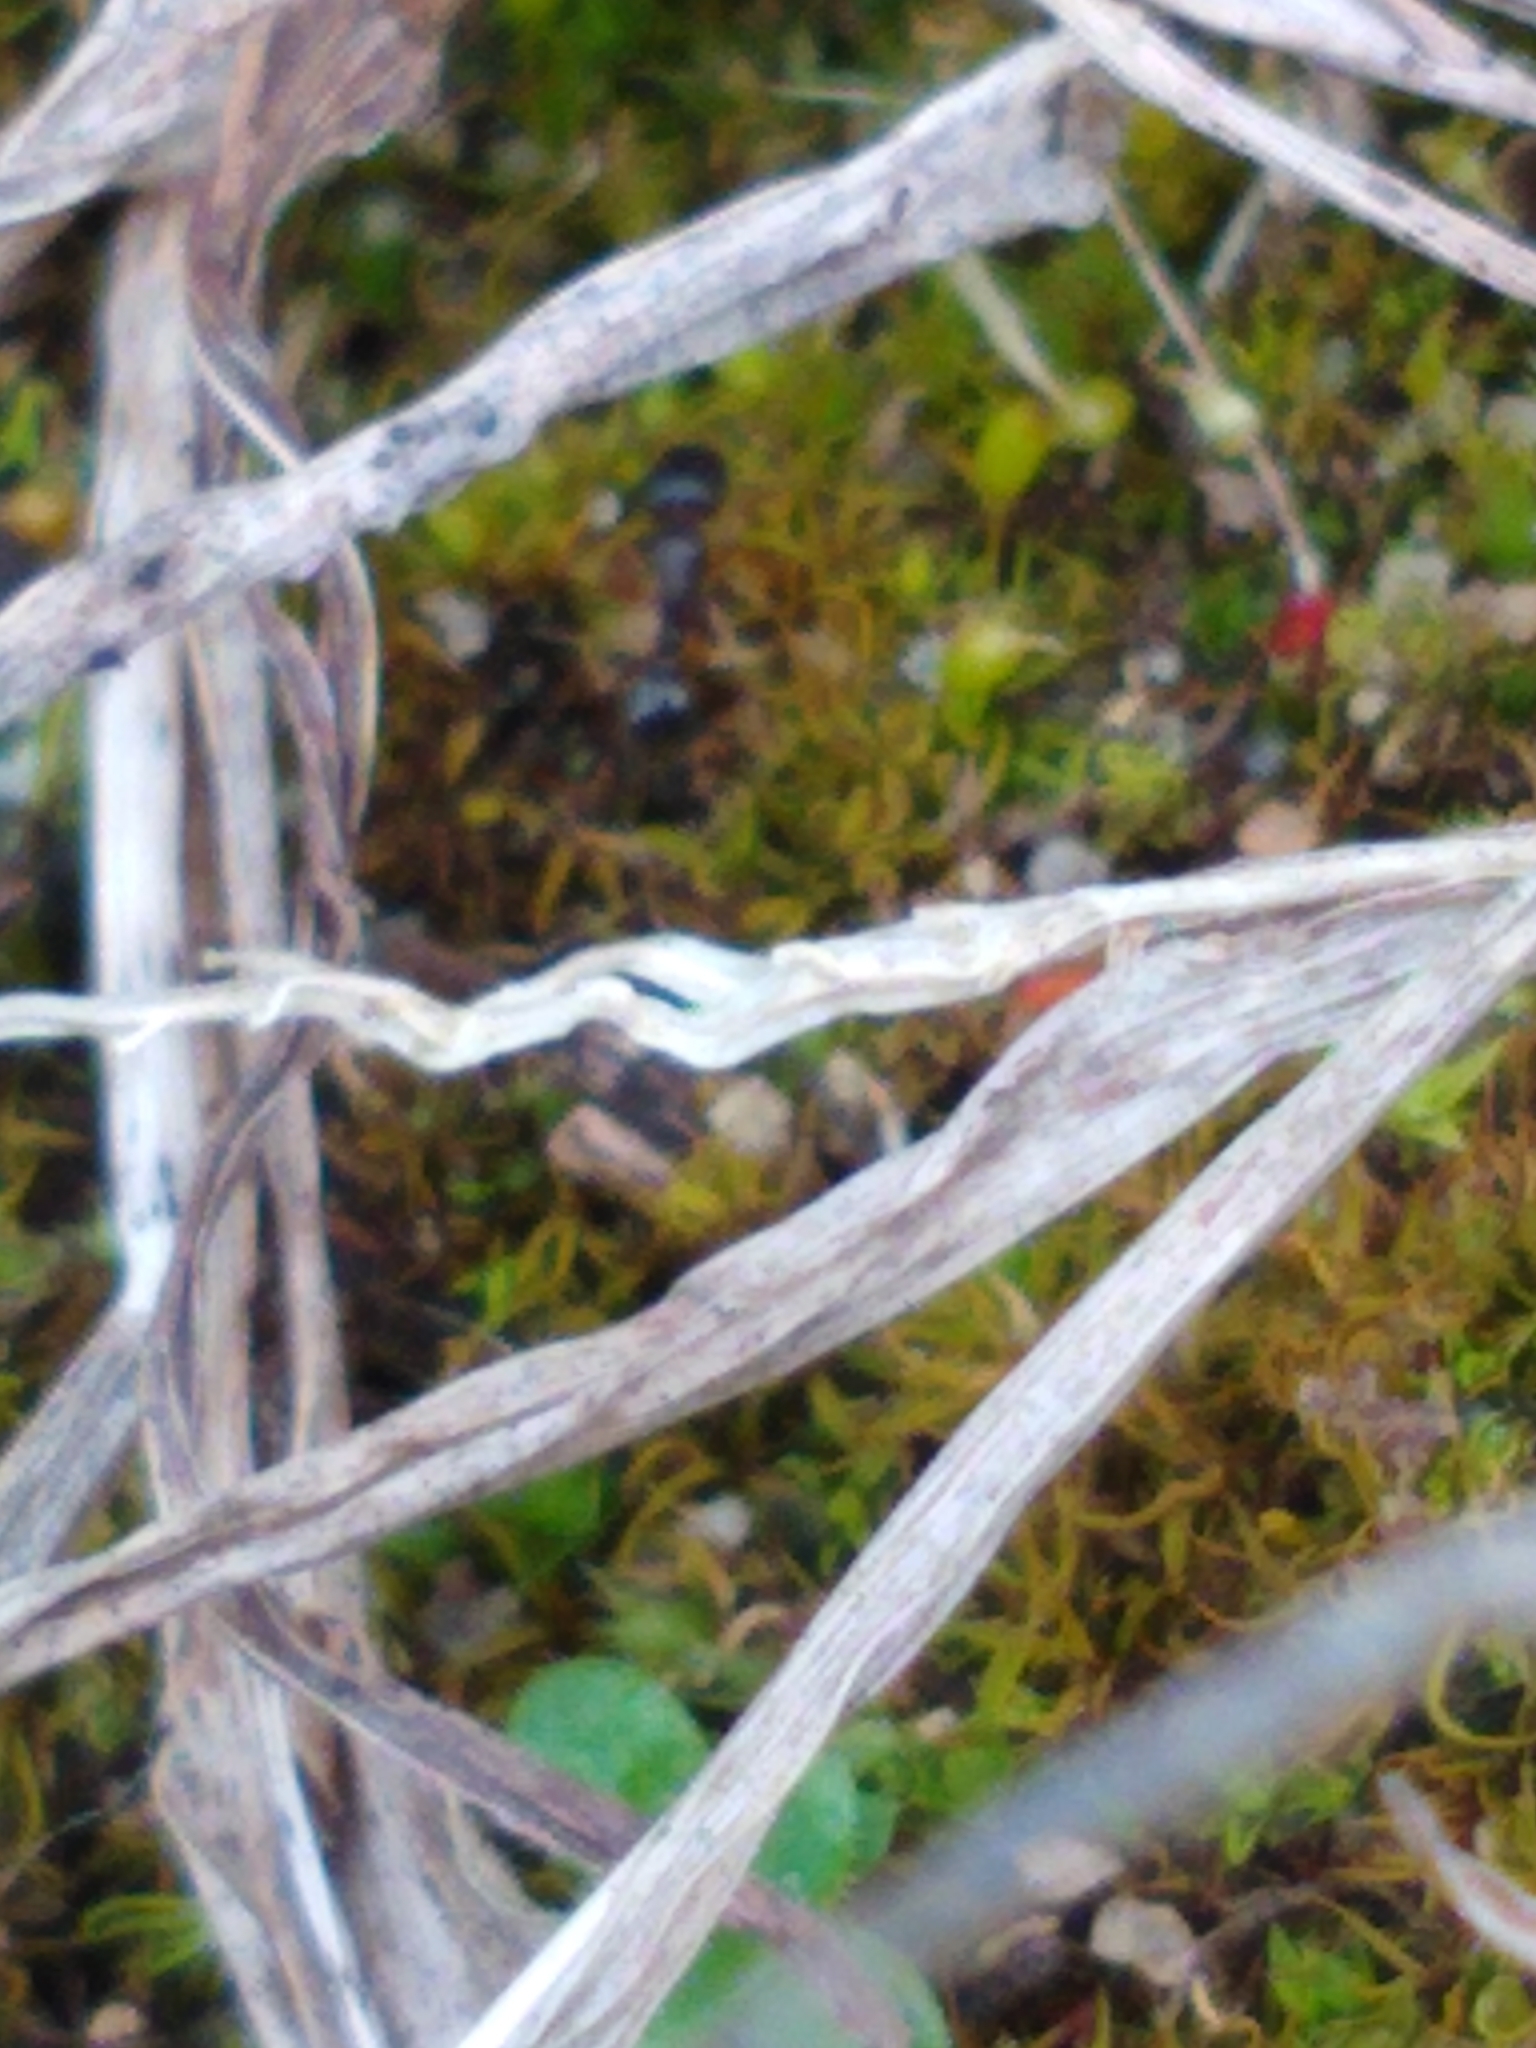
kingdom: Animalia
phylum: Arthropoda
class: Insecta
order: Hymenoptera
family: Formicidae
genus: Tetramorium
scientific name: Tetramorium immigrans
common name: Pavement ant
